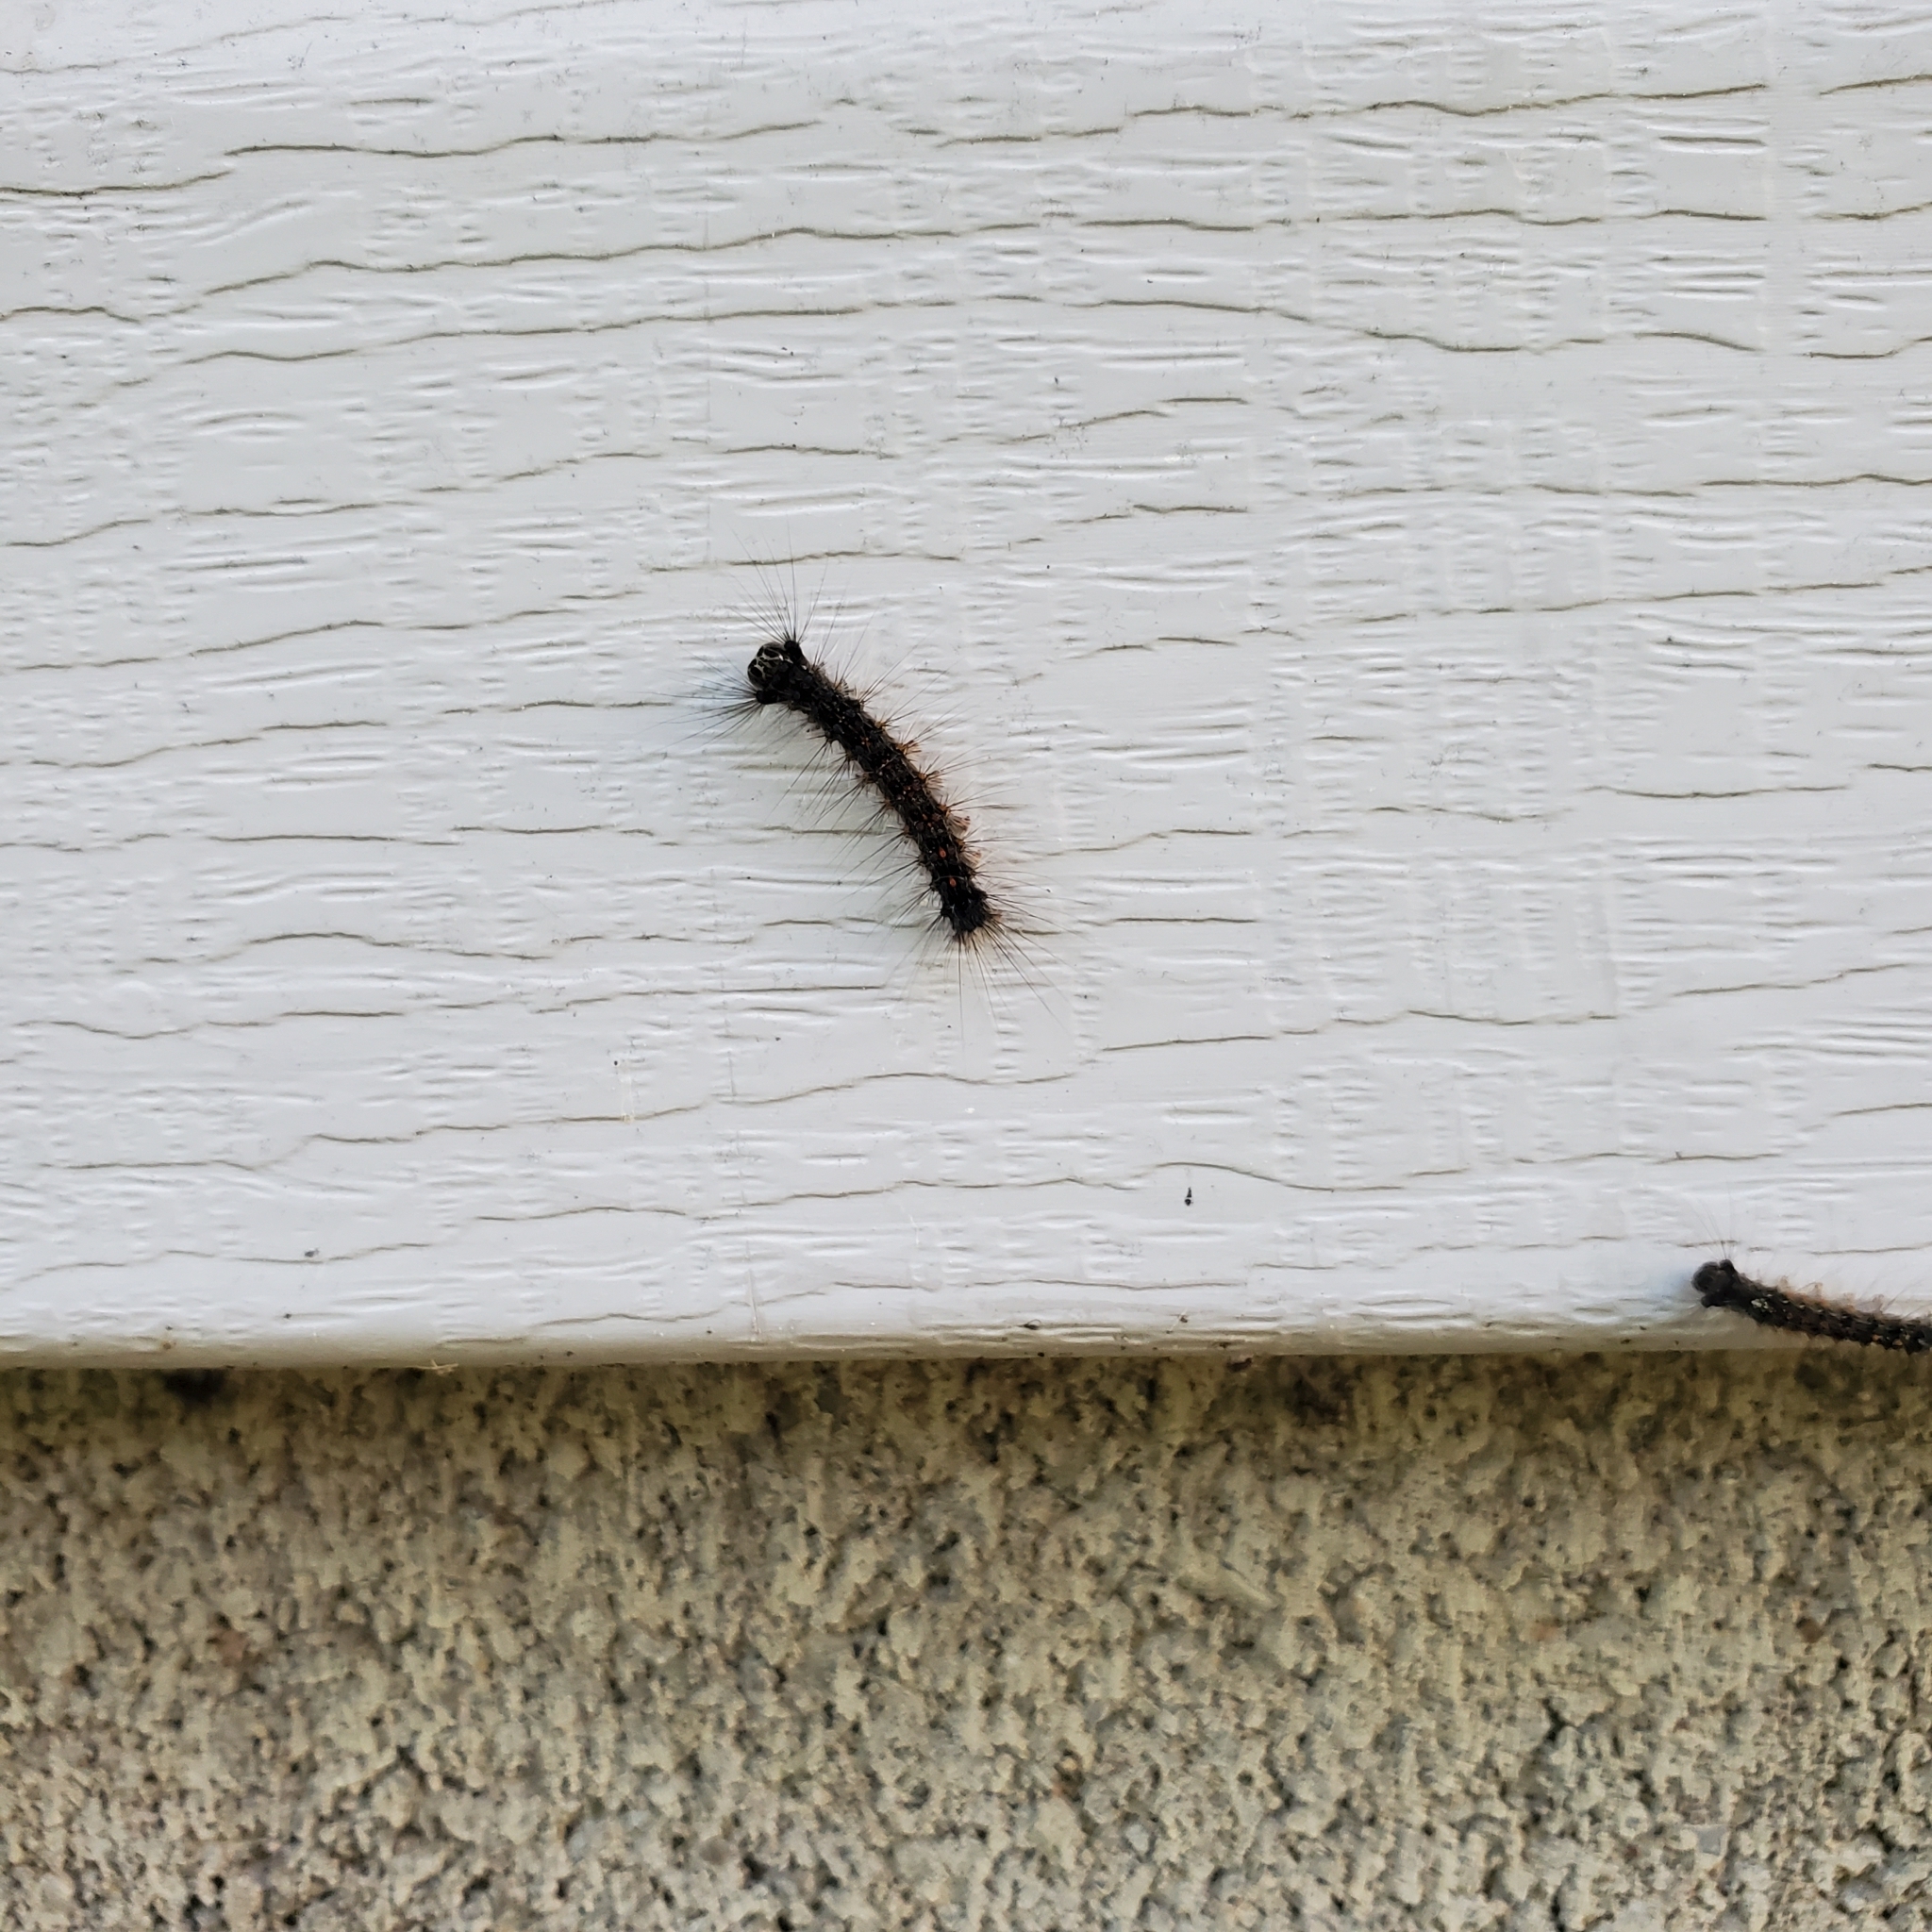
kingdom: Animalia
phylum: Arthropoda
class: Insecta
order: Lepidoptera
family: Erebidae
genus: Lymantria
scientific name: Lymantria dispar
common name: Gypsy moth
